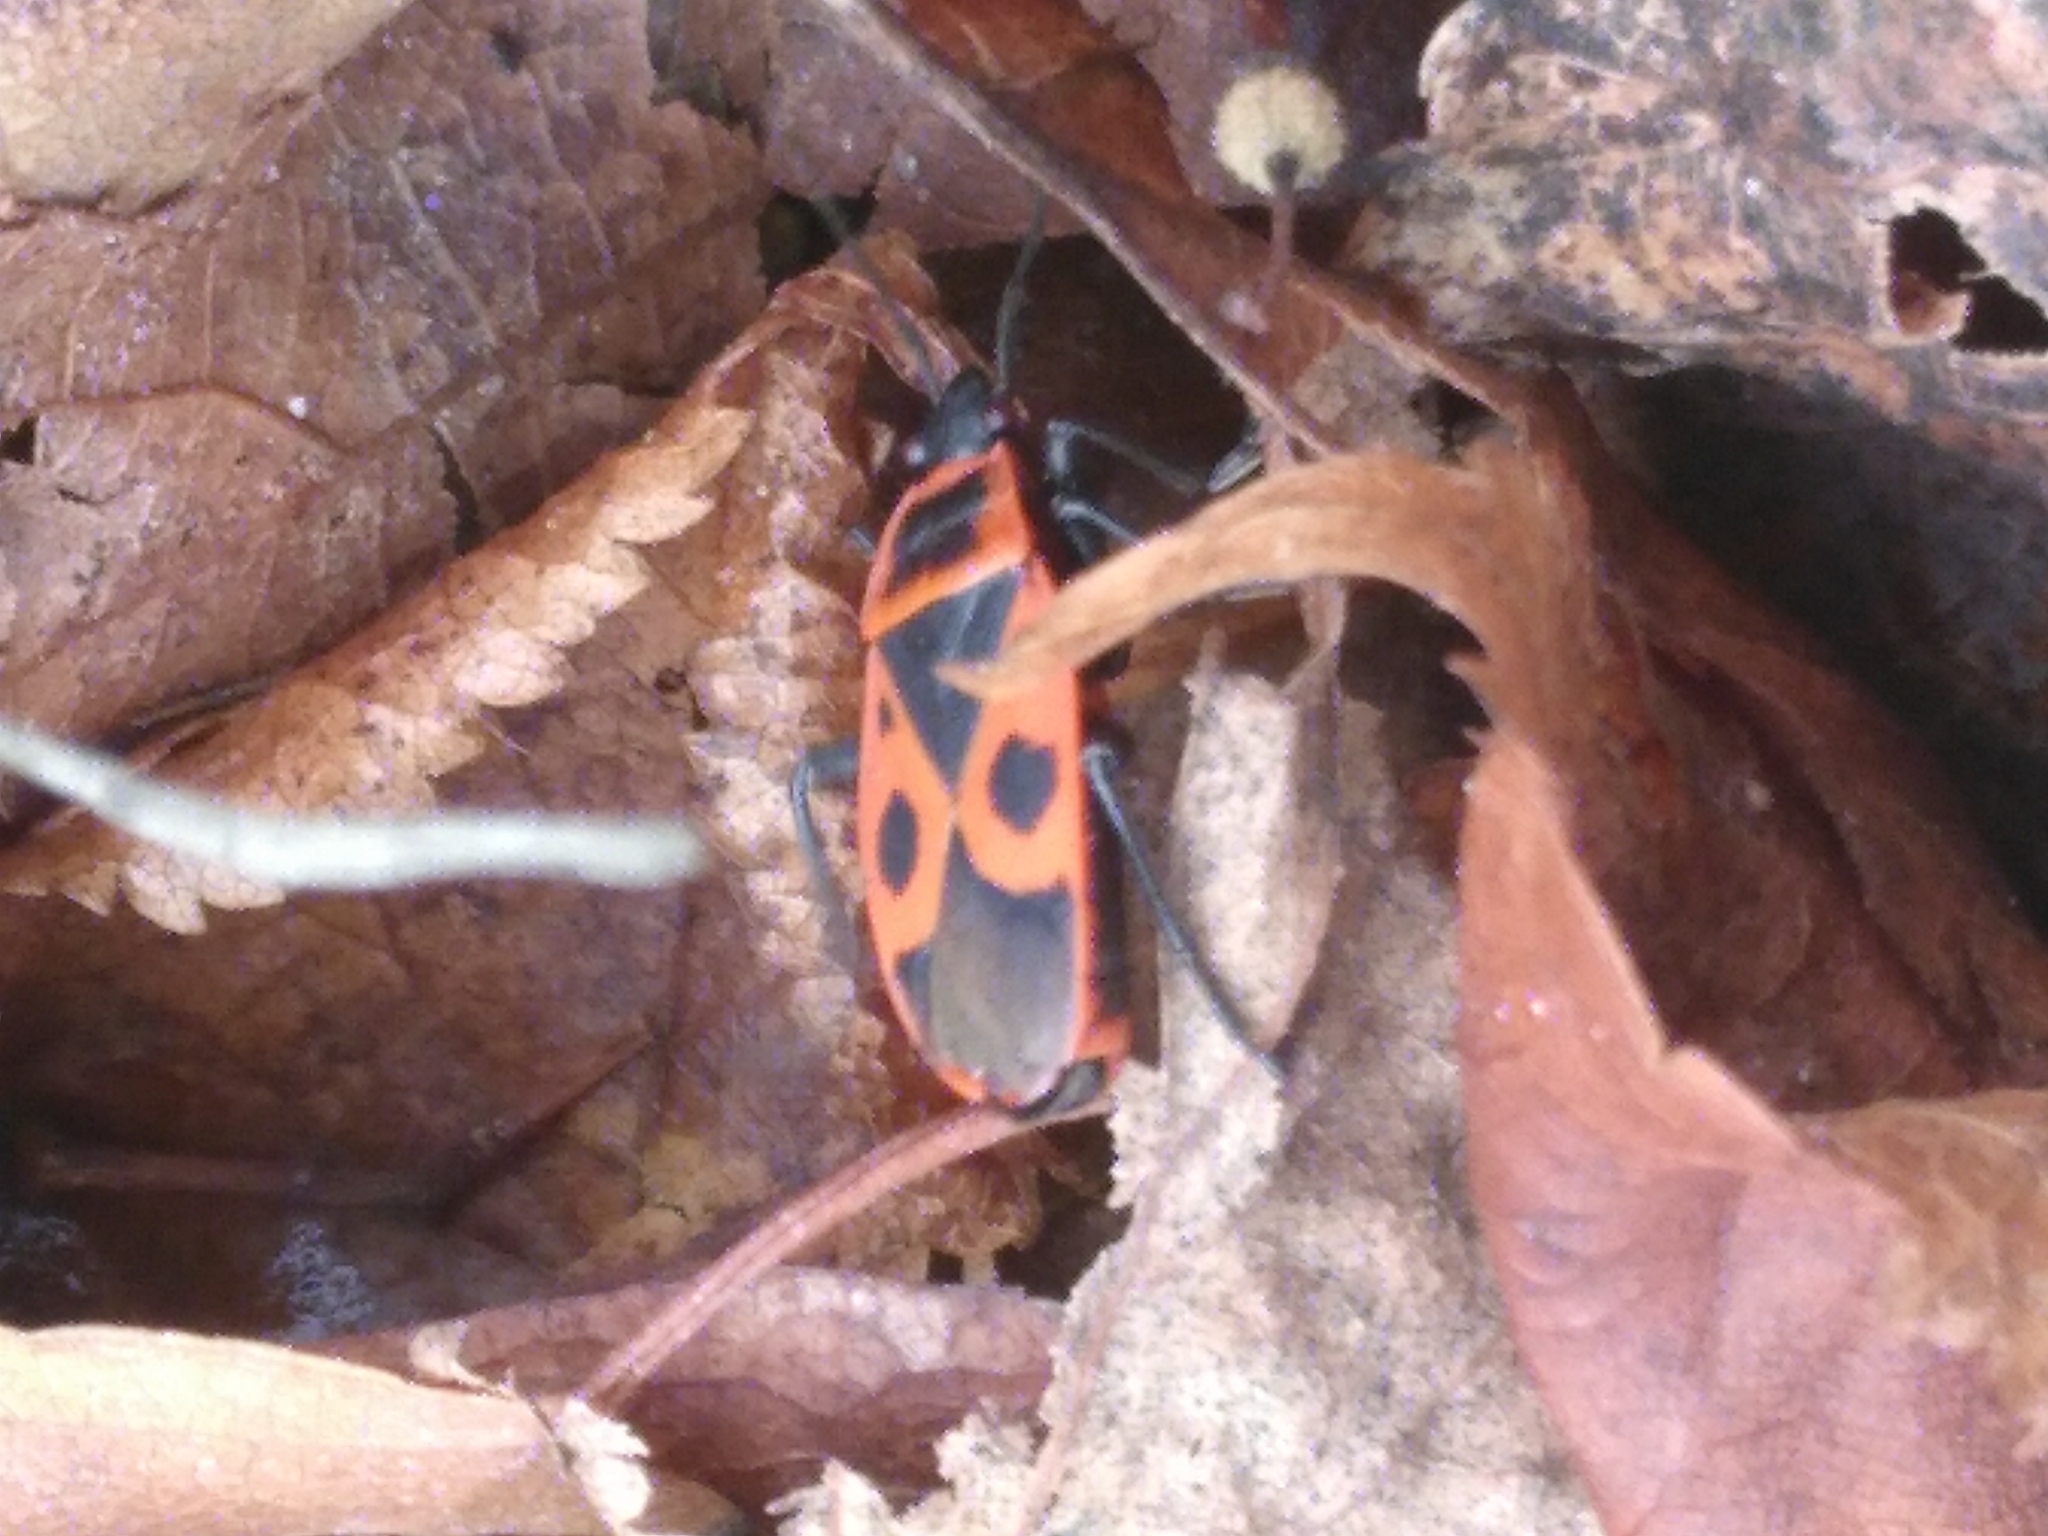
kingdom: Animalia
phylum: Arthropoda
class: Insecta
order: Hemiptera
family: Pyrrhocoridae
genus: Pyrrhocoris
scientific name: Pyrrhocoris apterus
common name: Firebug
